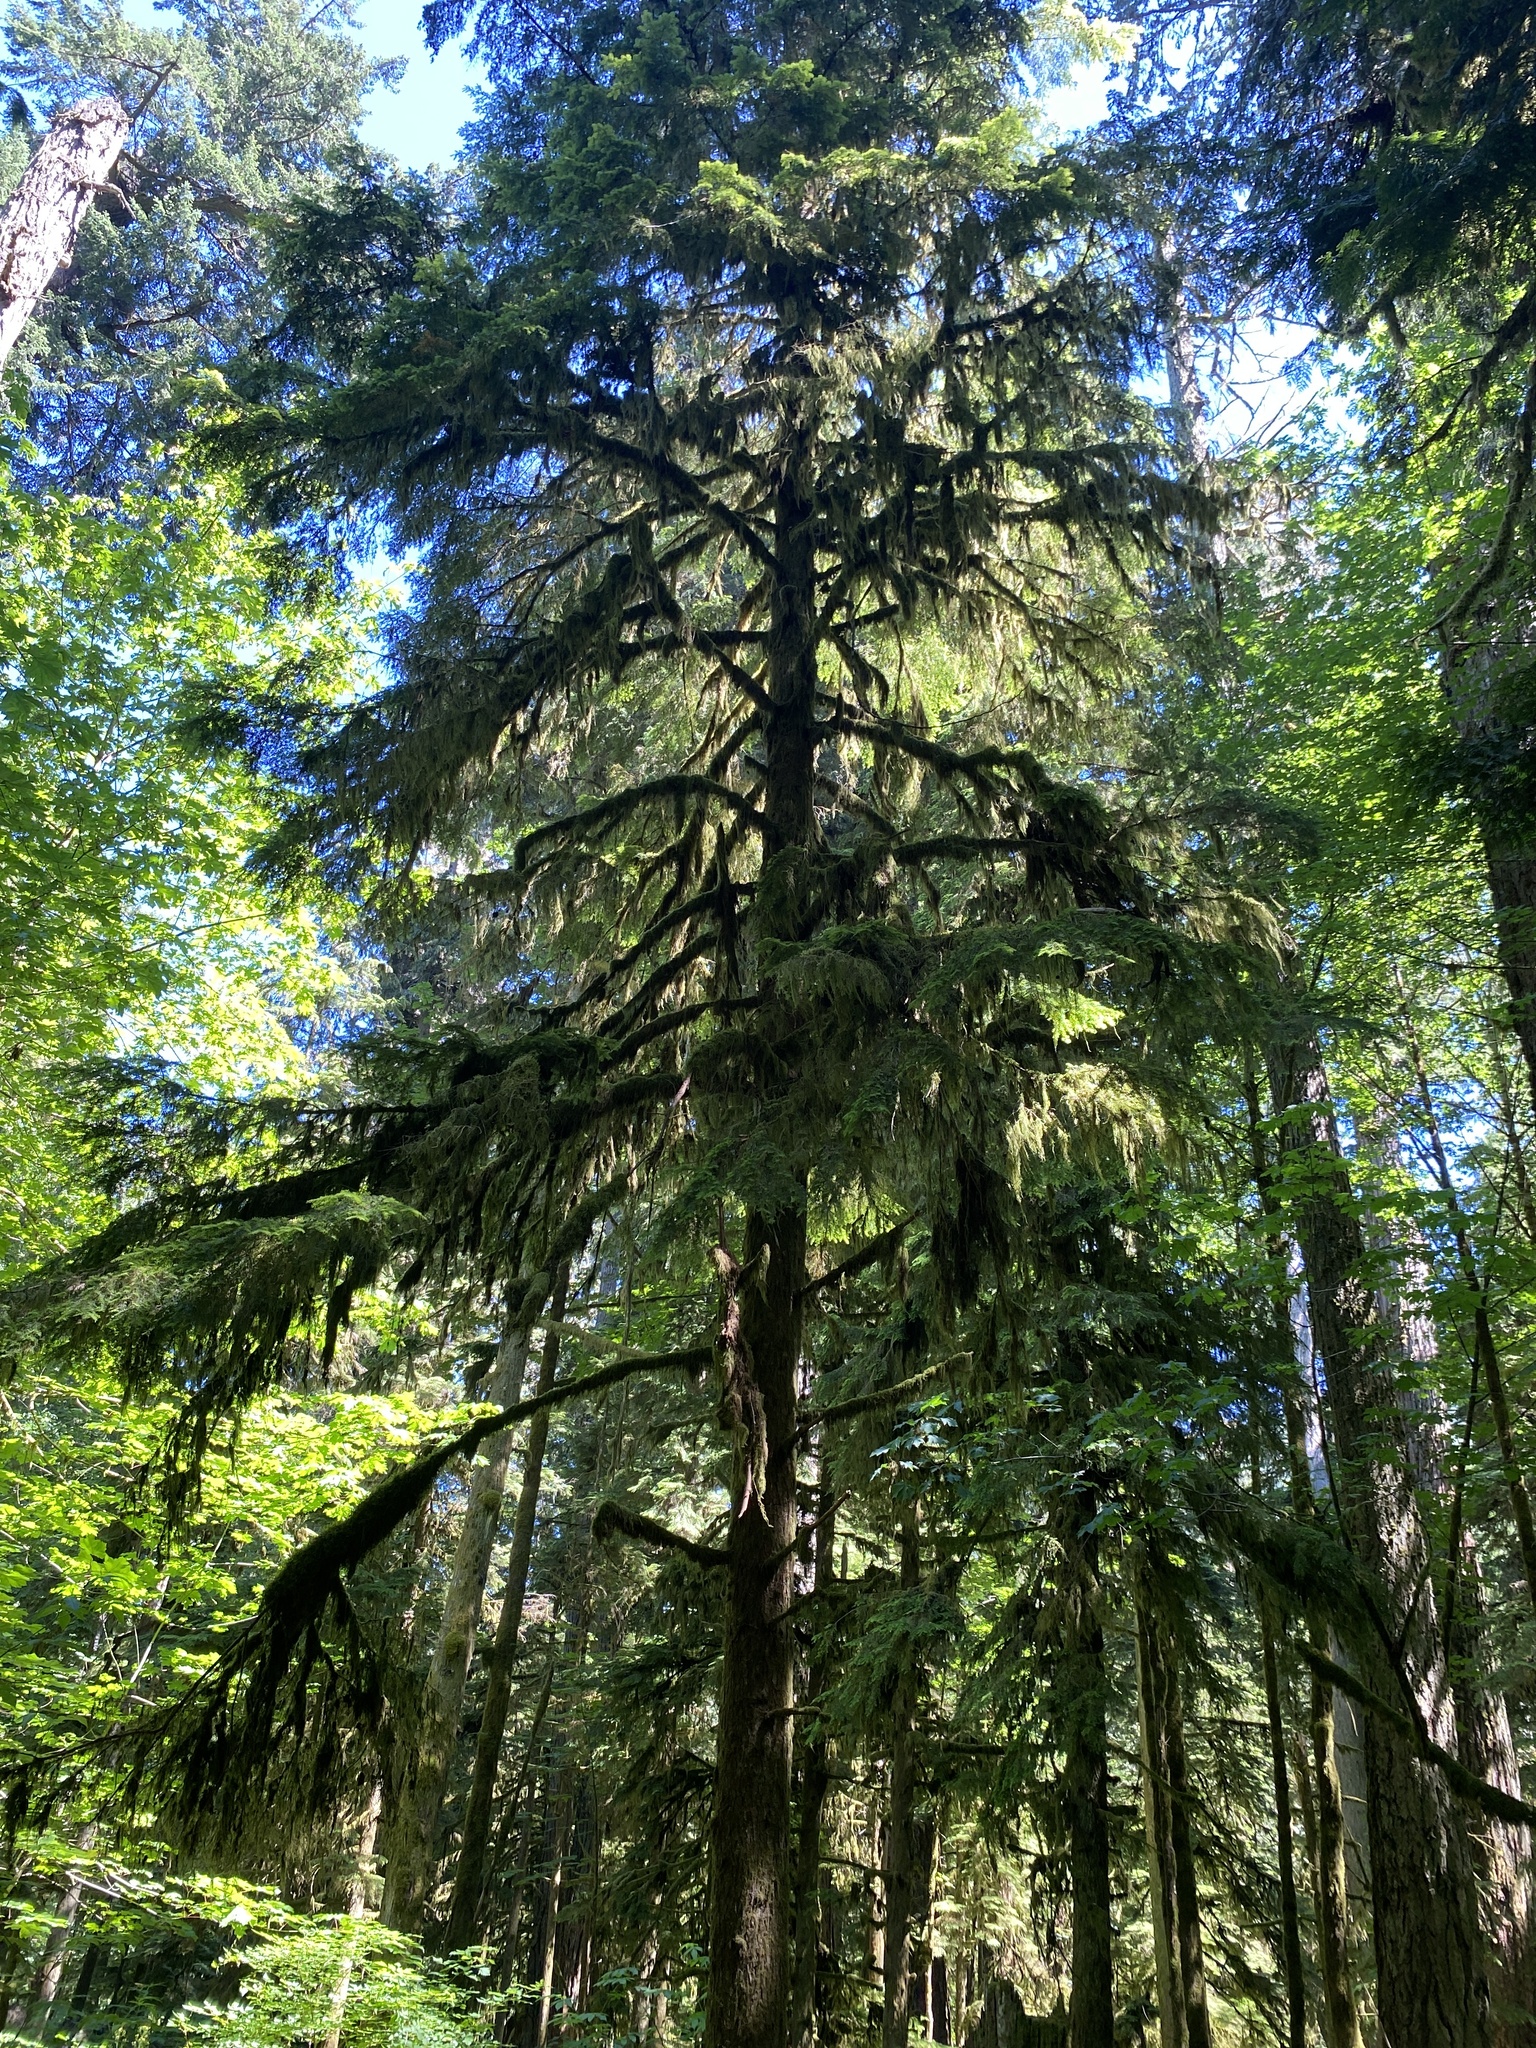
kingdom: Plantae
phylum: Tracheophyta
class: Pinopsida
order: Pinales
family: Pinaceae
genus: Tsuga
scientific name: Tsuga heterophylla
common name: Western hemlock
